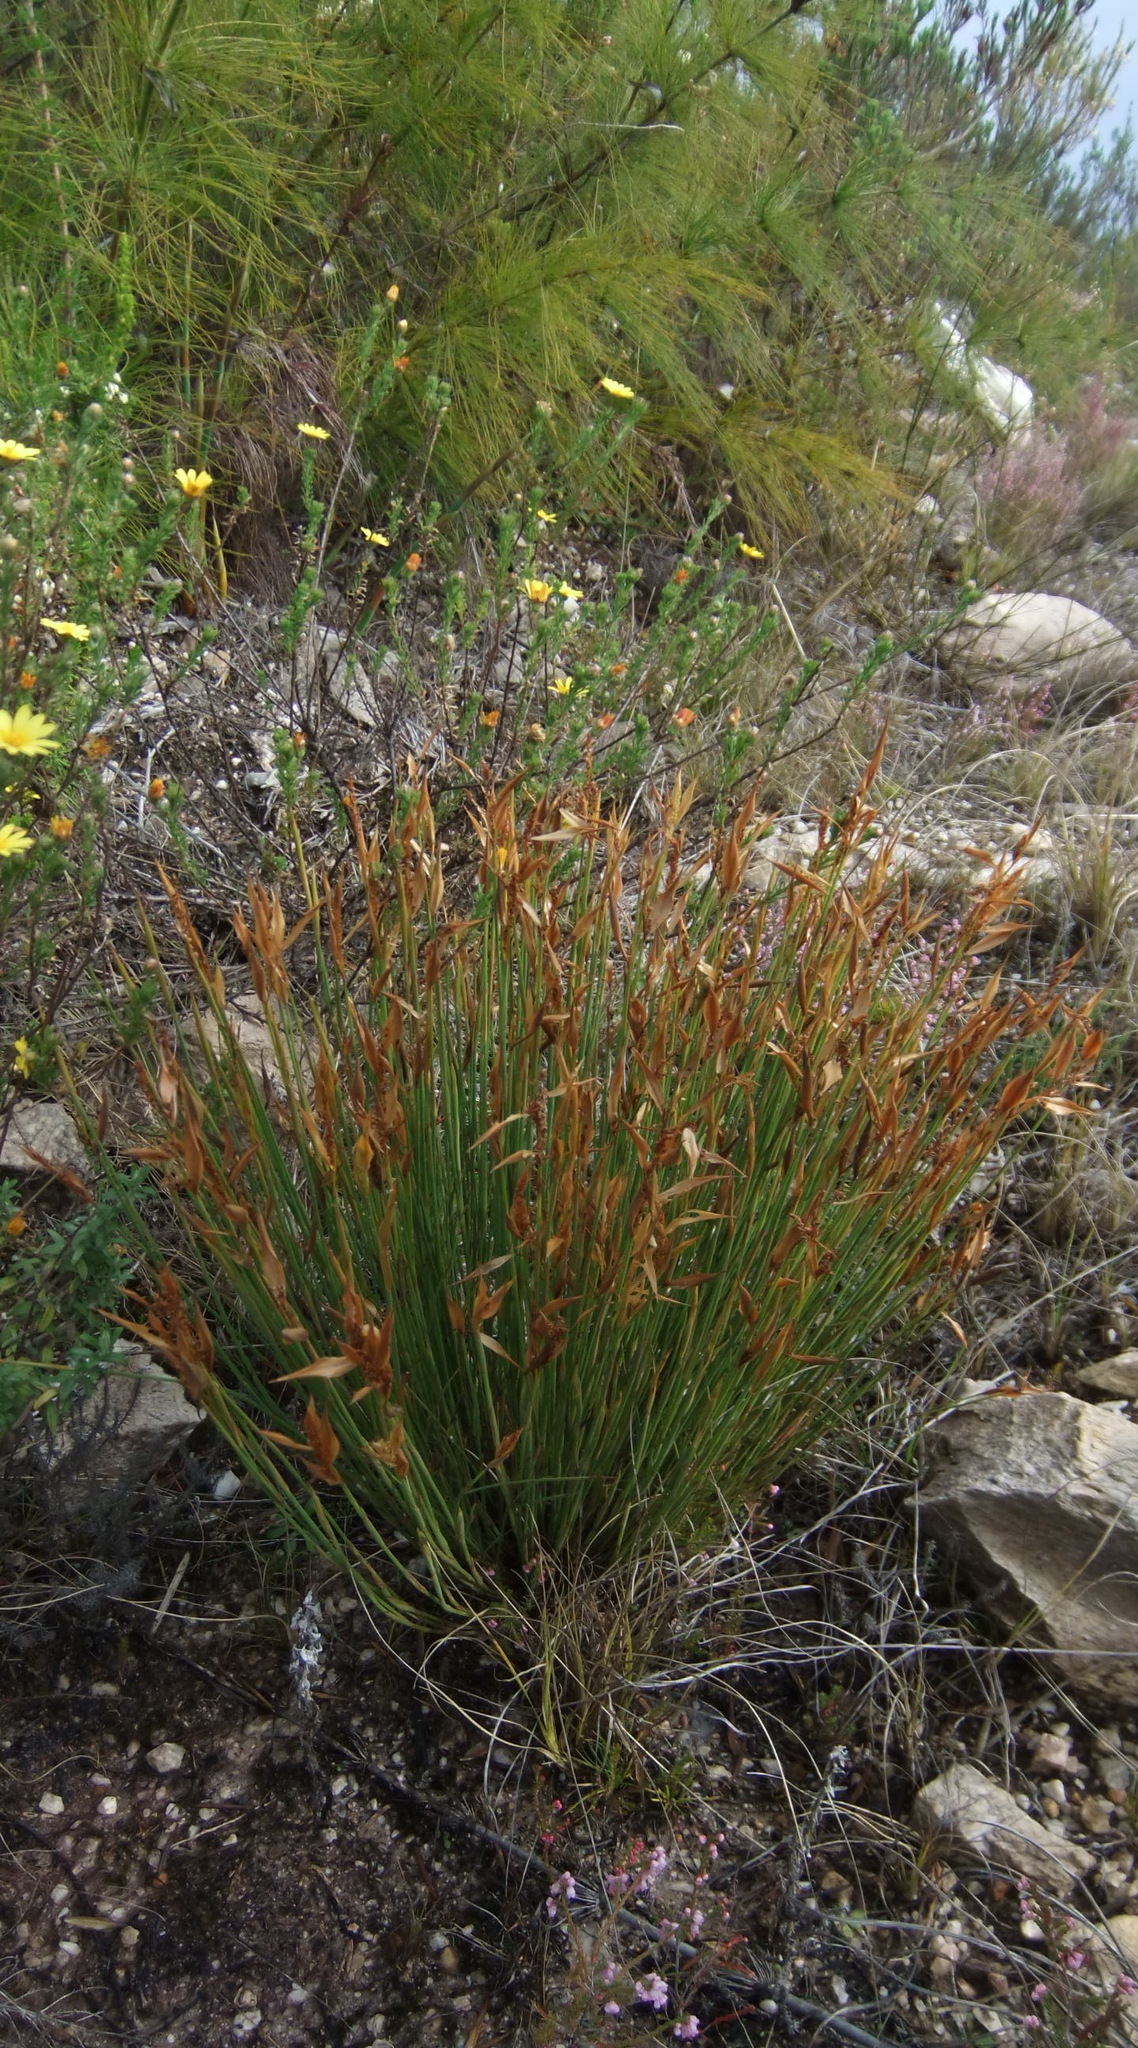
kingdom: Plantae
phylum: Tracheophyta
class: Liliopsida
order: Poales
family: Restionaceae
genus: Elegia
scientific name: Elegia neesii
